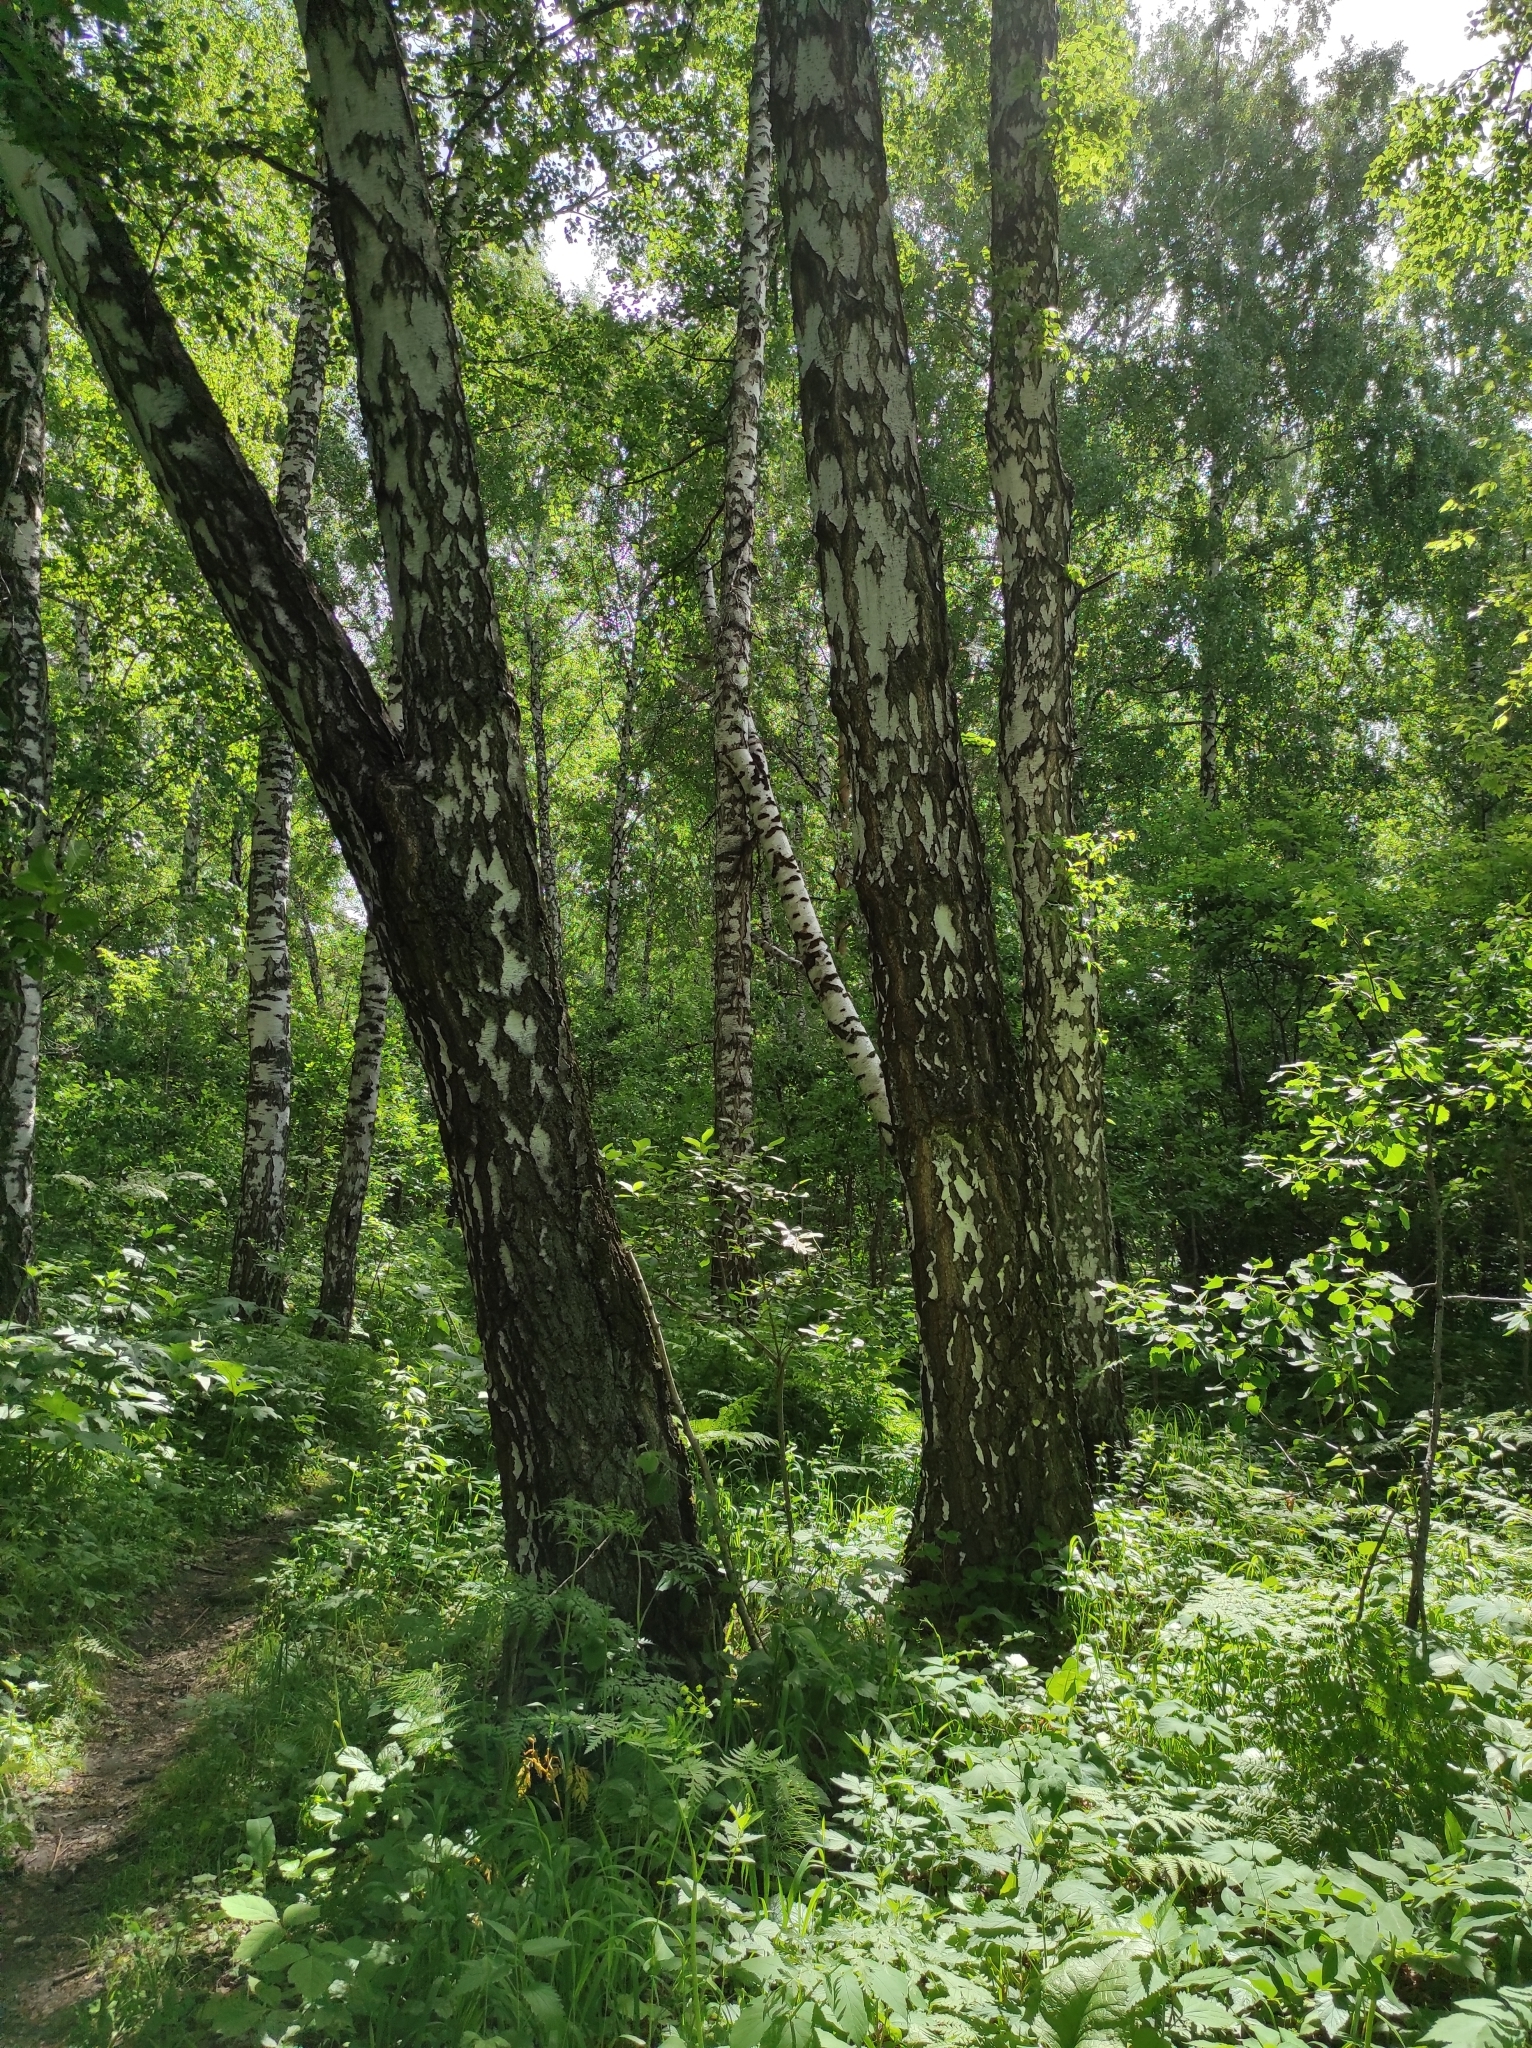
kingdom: Plantae
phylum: Tracheophyta
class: Magnoliopsida
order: Fagales
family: Betulaceae
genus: Betula
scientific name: Betula pendula
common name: Silver birch
